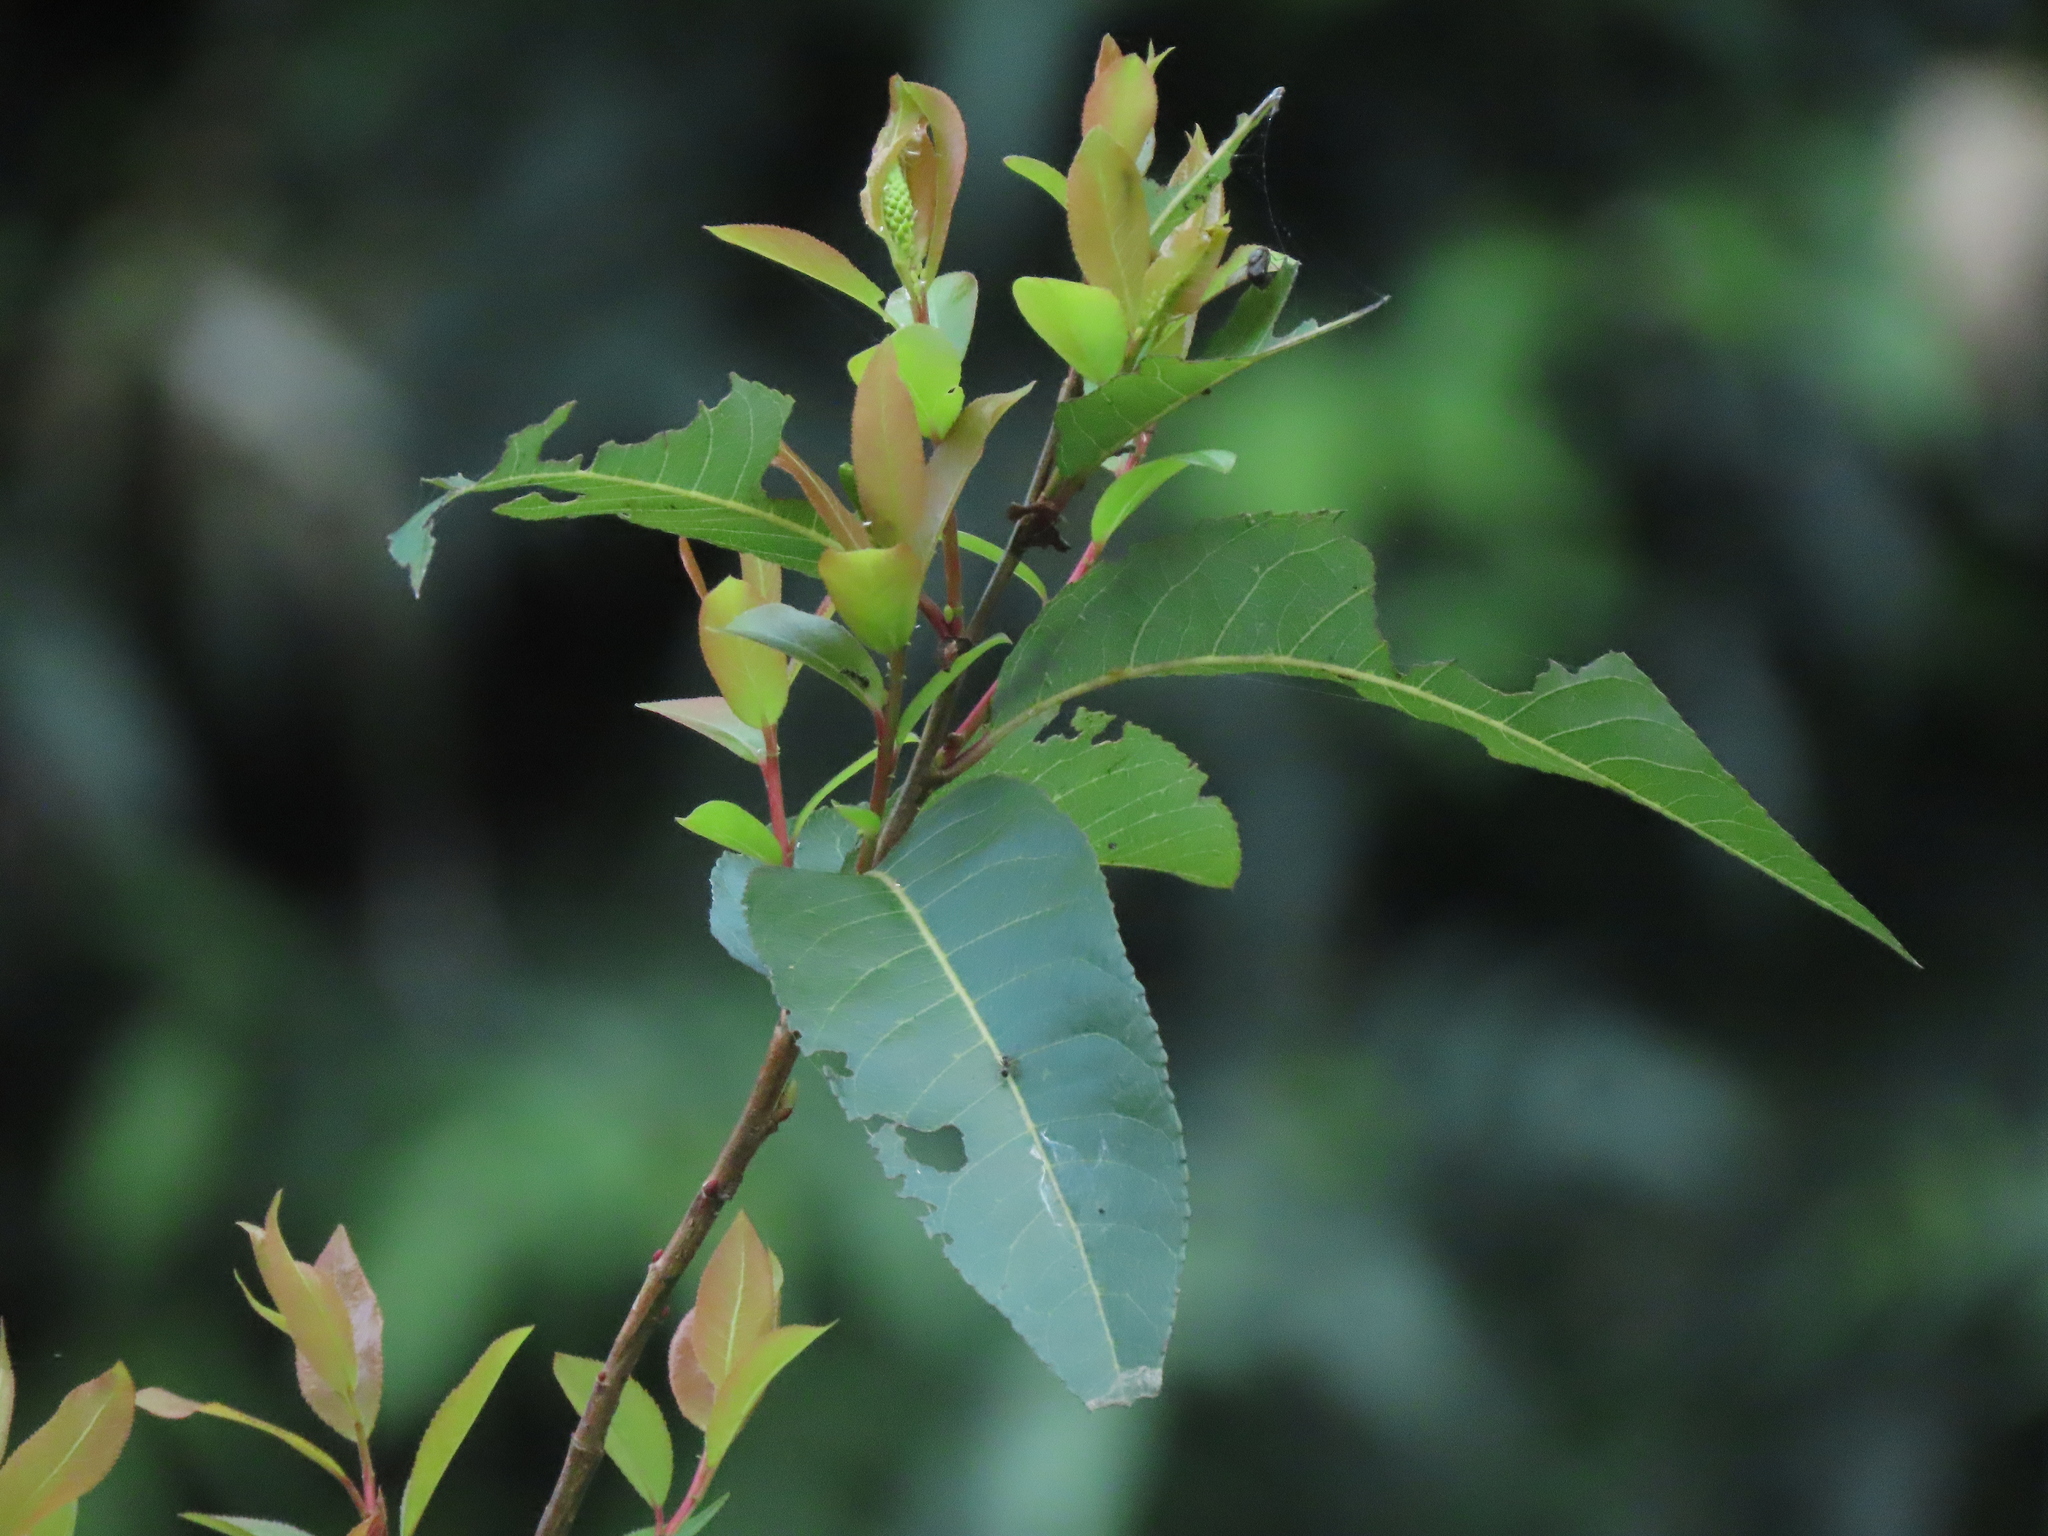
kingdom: Plantae
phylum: Tracheophyta
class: Magnoliopsida
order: Malpighiales
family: Salicaceae
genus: Salix
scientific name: Salix mesnyi
